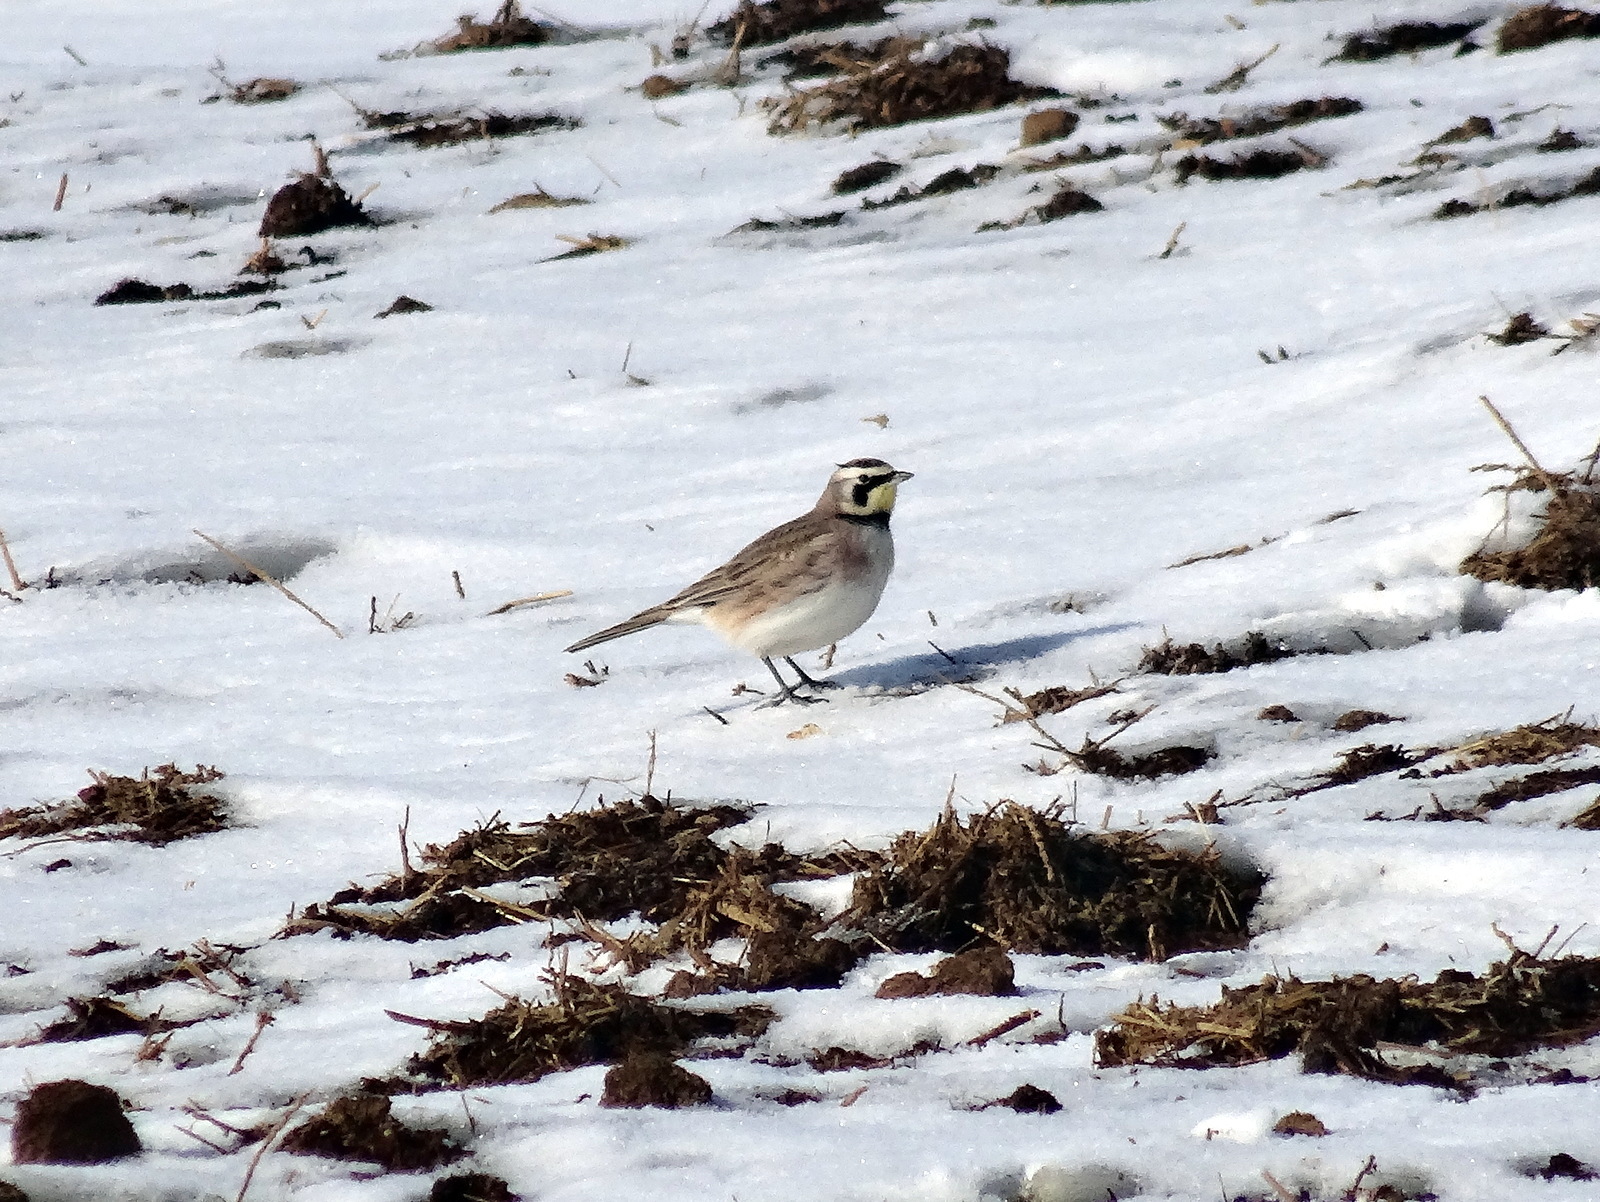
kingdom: Animalia
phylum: Chordata
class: Aves
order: Passeriformes
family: Alaudidae
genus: Eremophila
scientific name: Eremophila alpestris
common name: Horned lark
